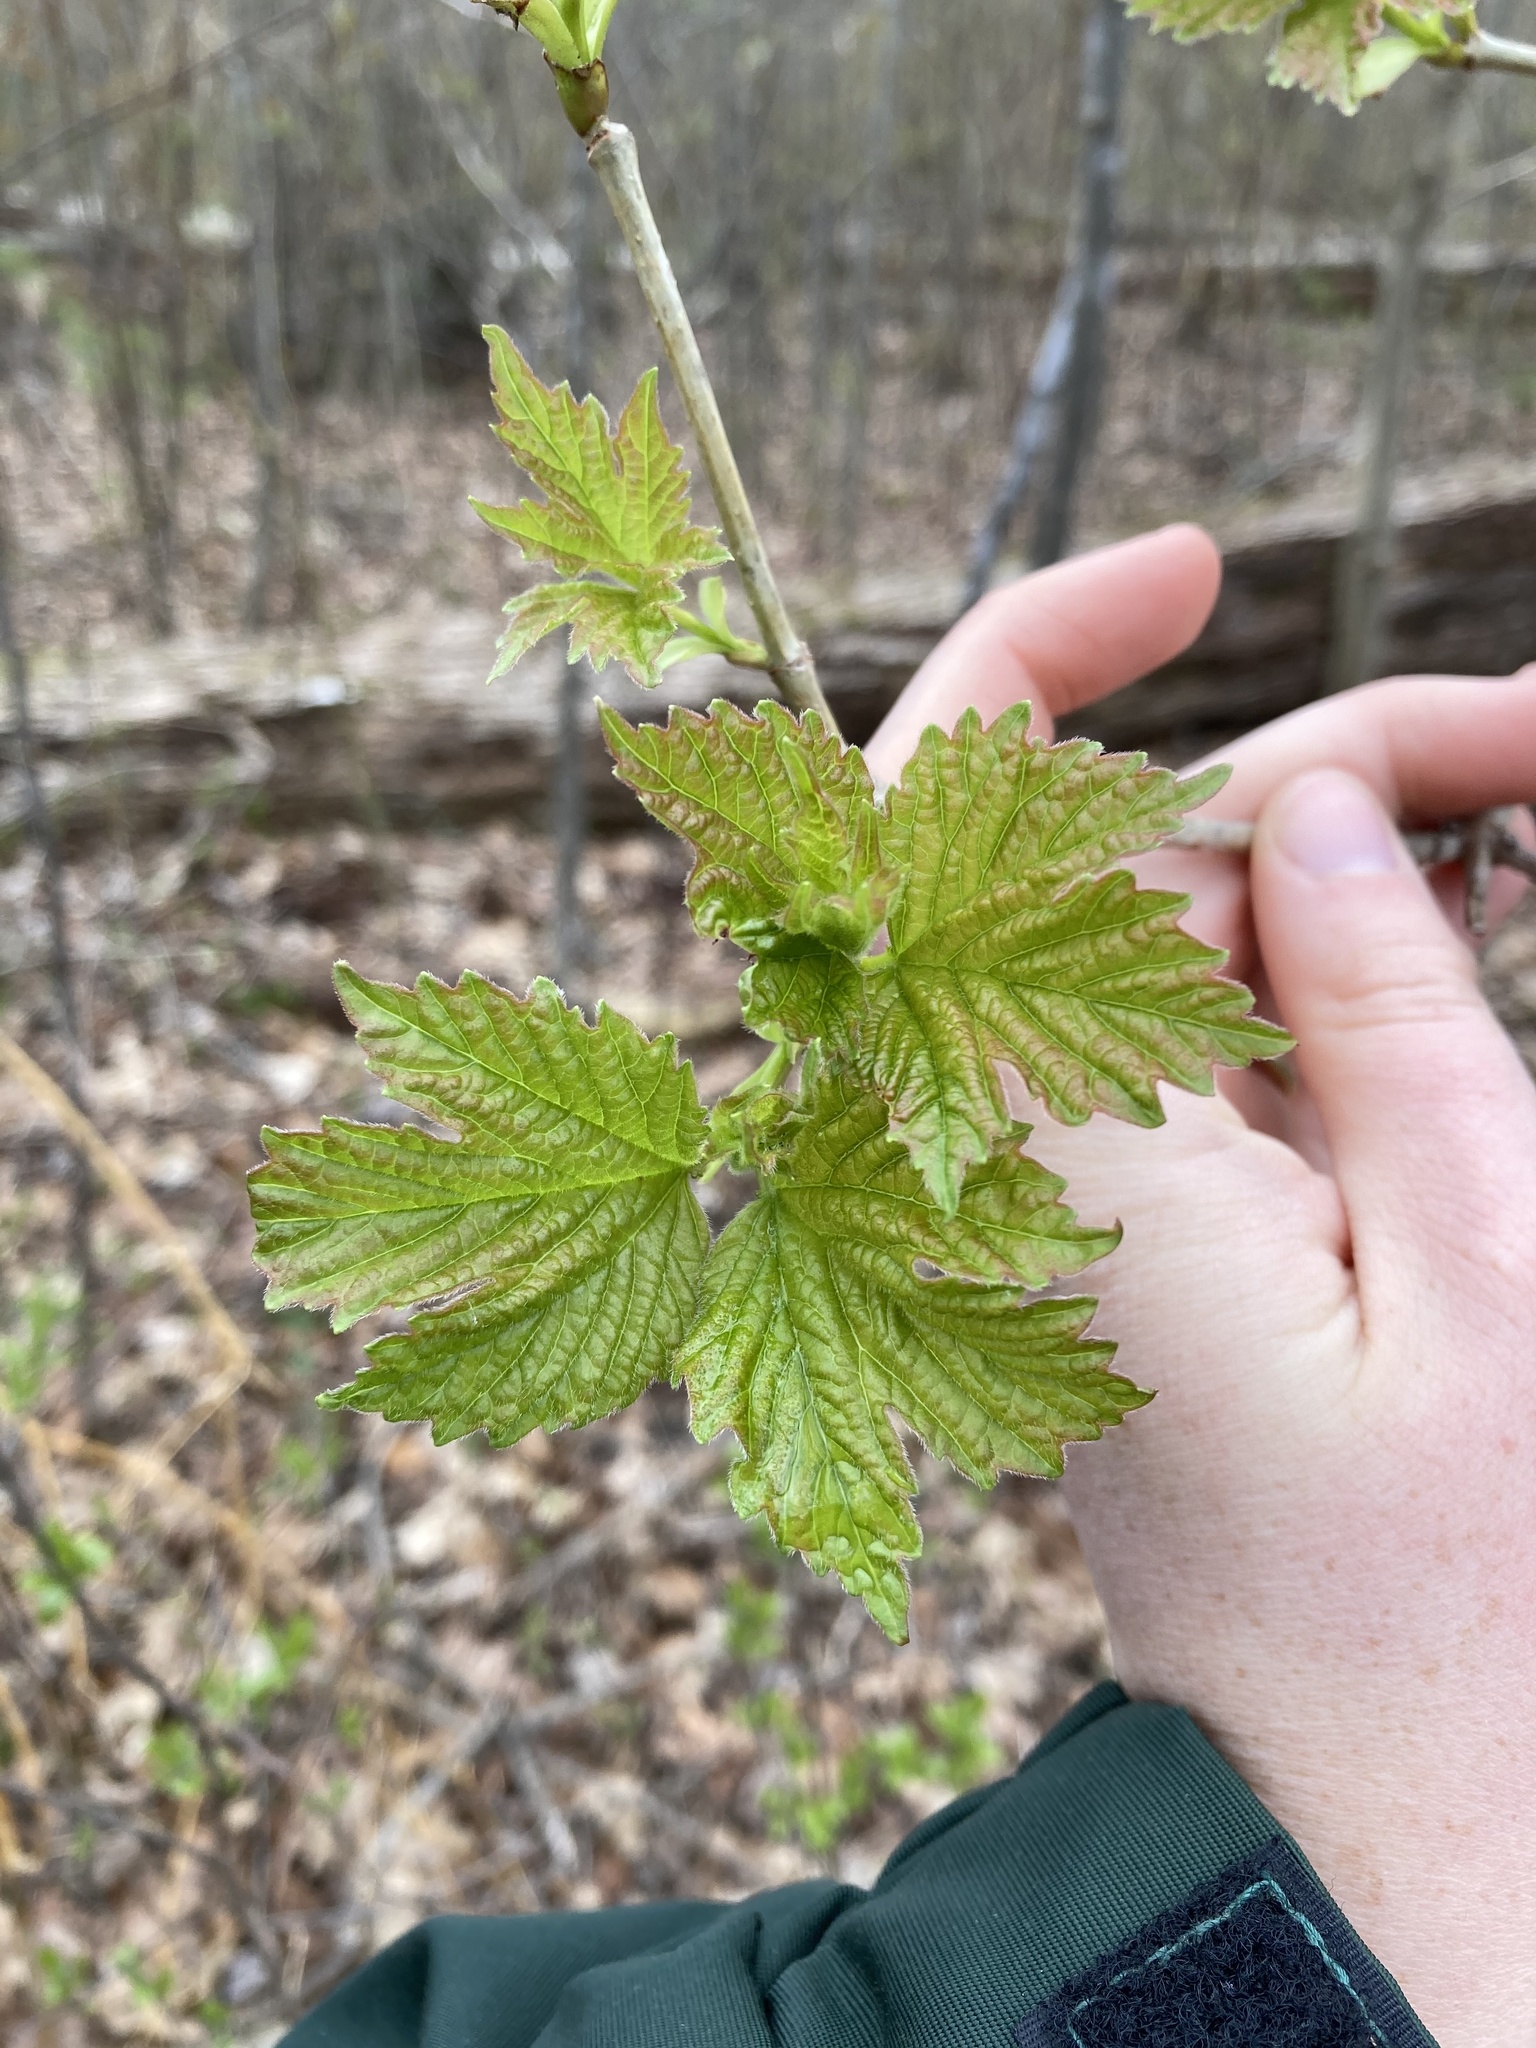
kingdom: Plantae
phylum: Tracheophyta
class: Magnoliopsida
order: Dipsacales
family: Viburnaceae
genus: Viburnum
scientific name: Viburnum acerifolium
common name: Dockmackie
